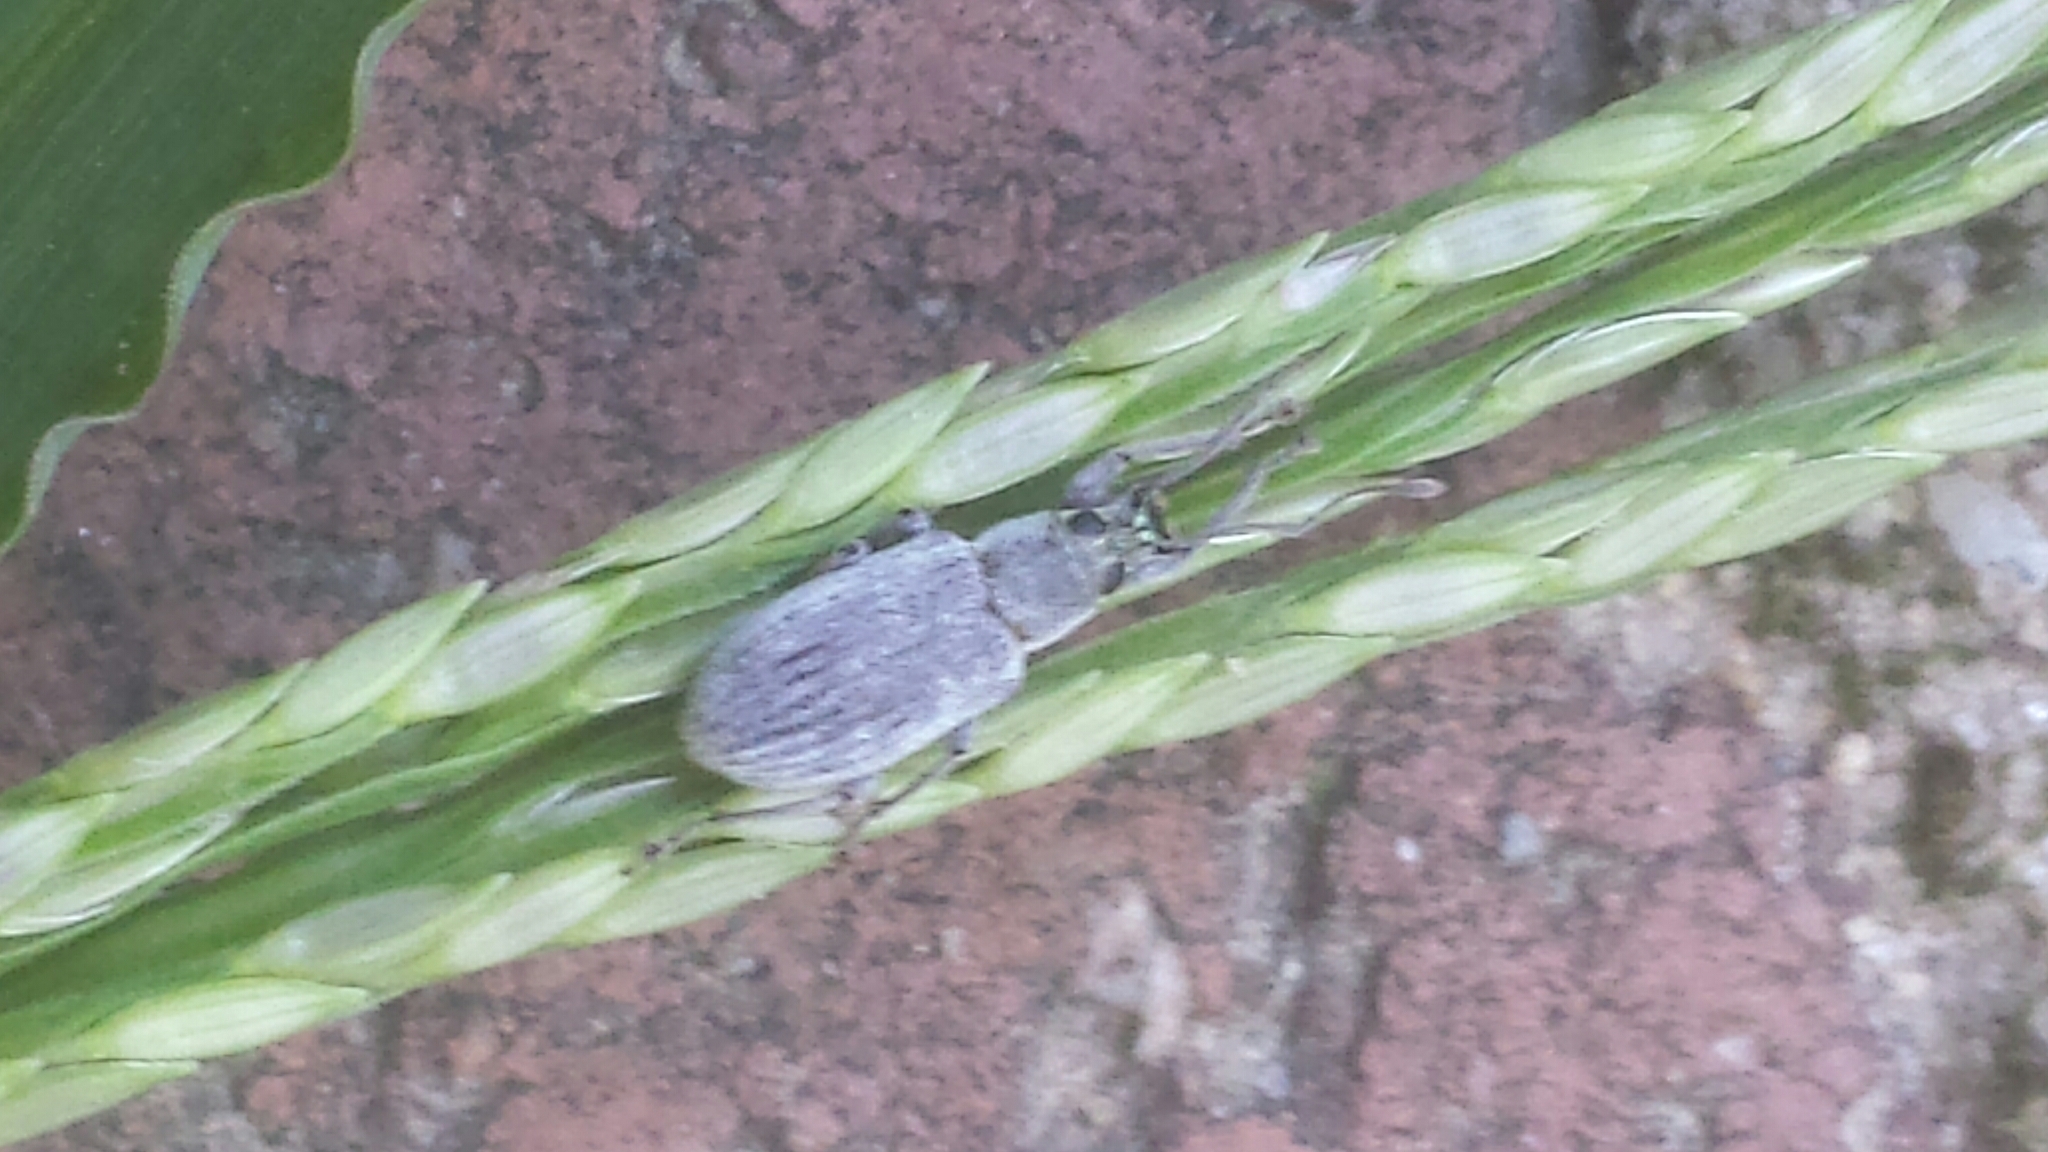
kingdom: Animalia
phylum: Arthropoda
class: Insecta
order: Coleoptera
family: Curculionidae
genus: Cyrtepistomus
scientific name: Cyrtepistomus castaneus
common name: Weevil
